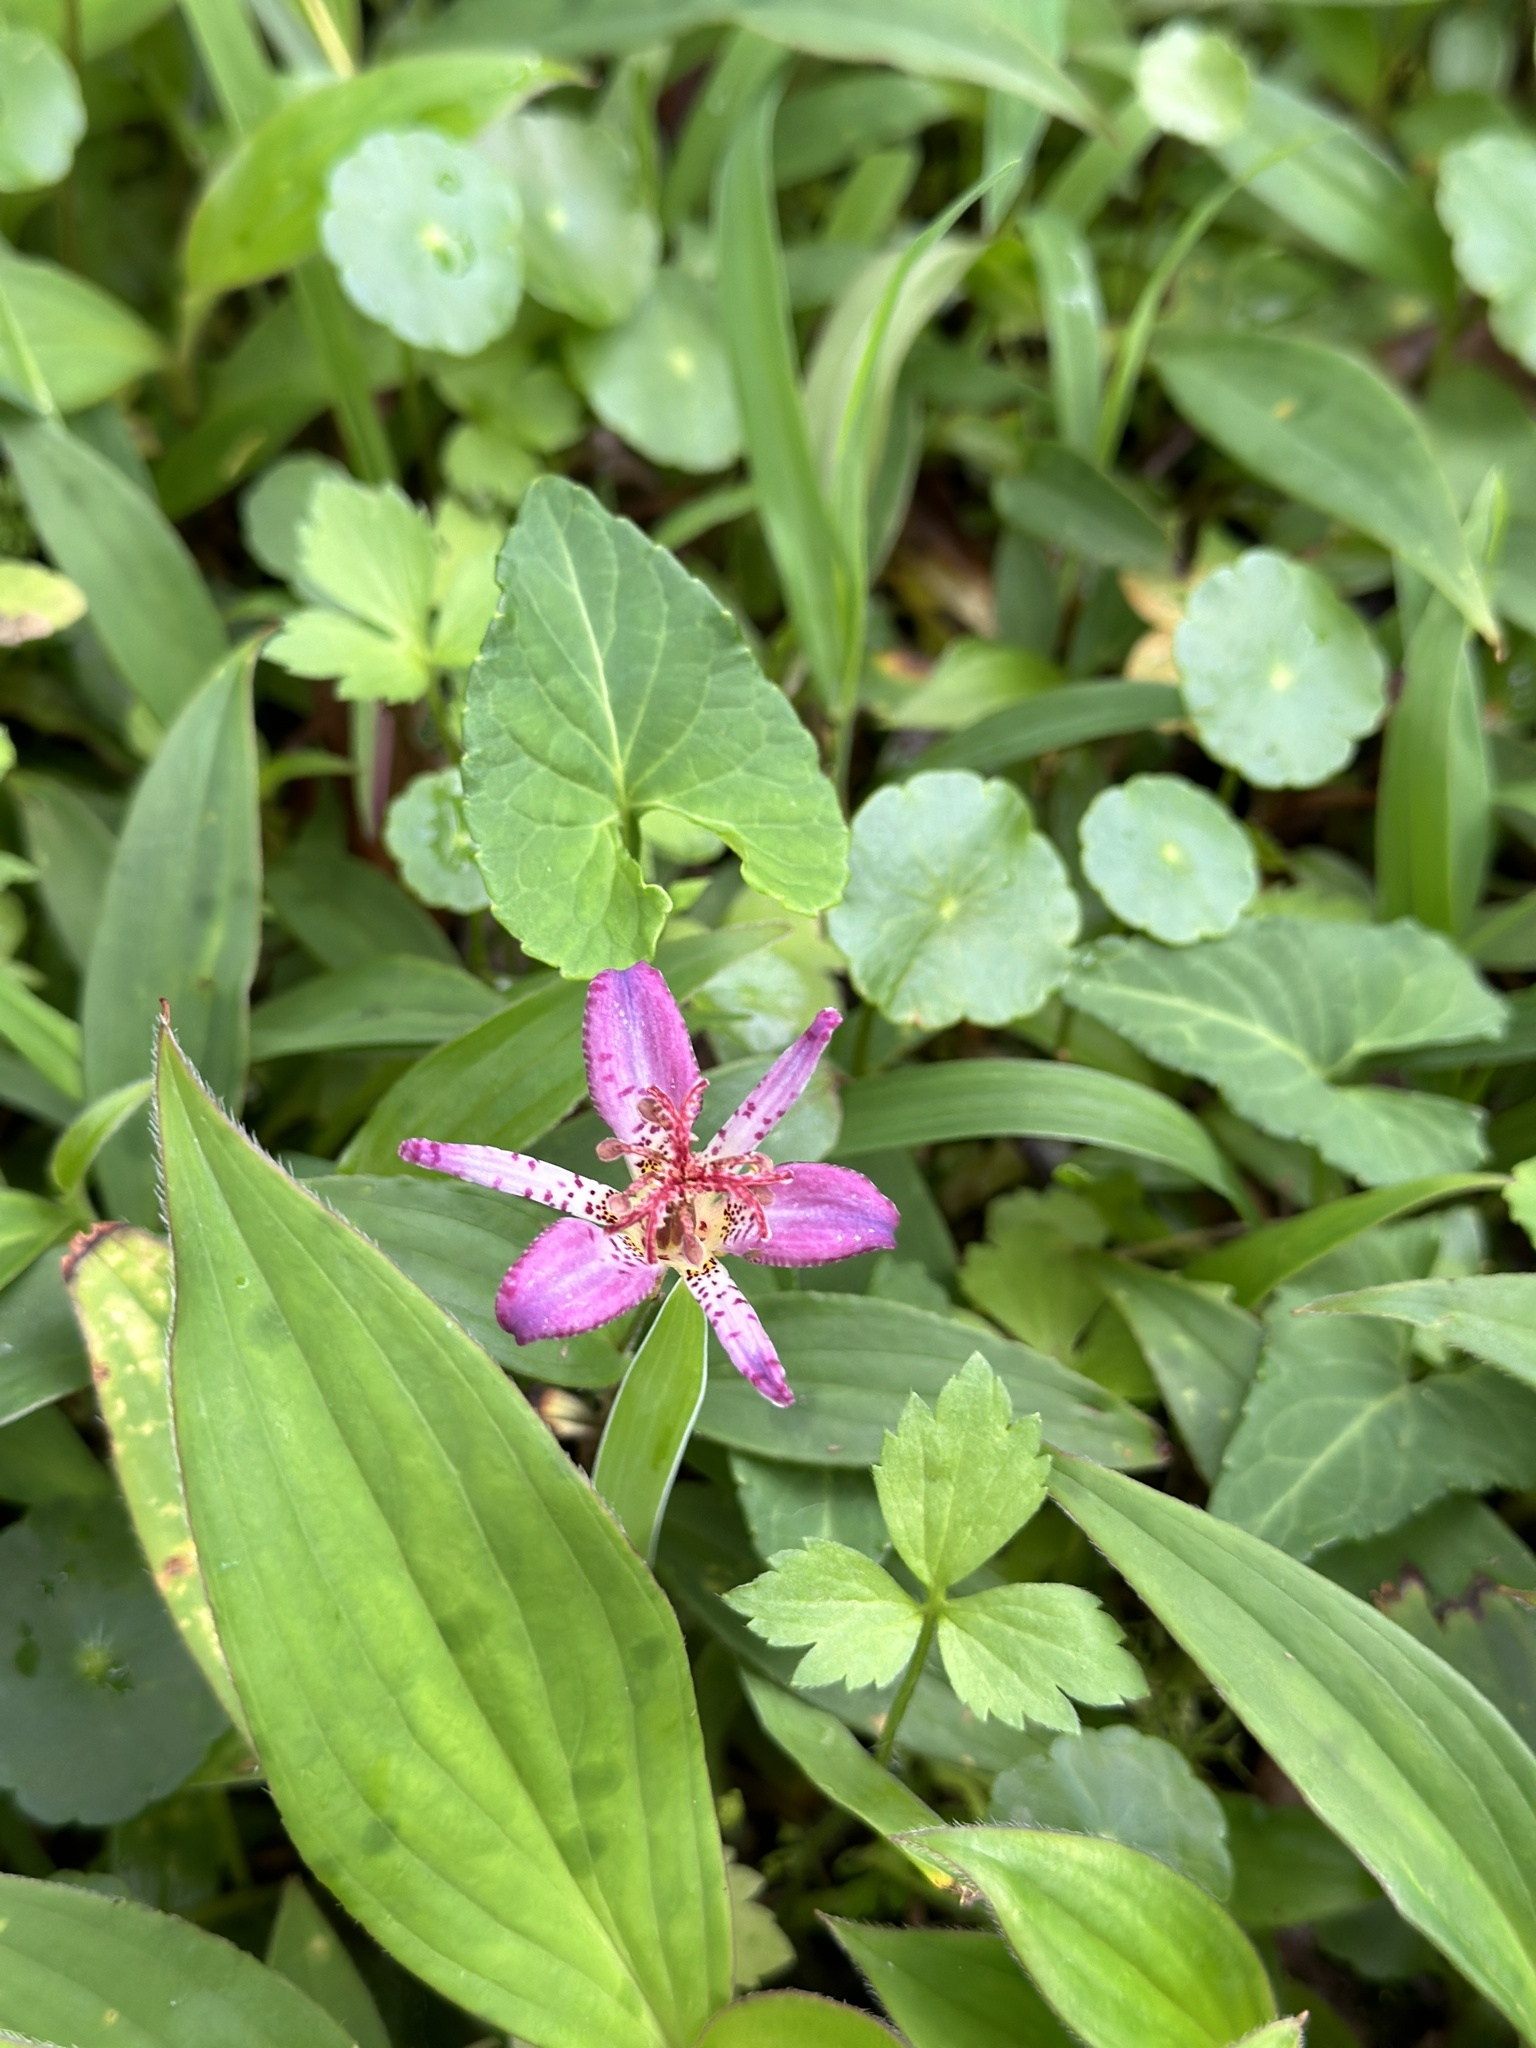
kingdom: Plantae
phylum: Tracheophyta
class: Liliopsida
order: Liliales
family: Liliaceae
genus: Tricyrtis
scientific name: Tricyrtis formosana
